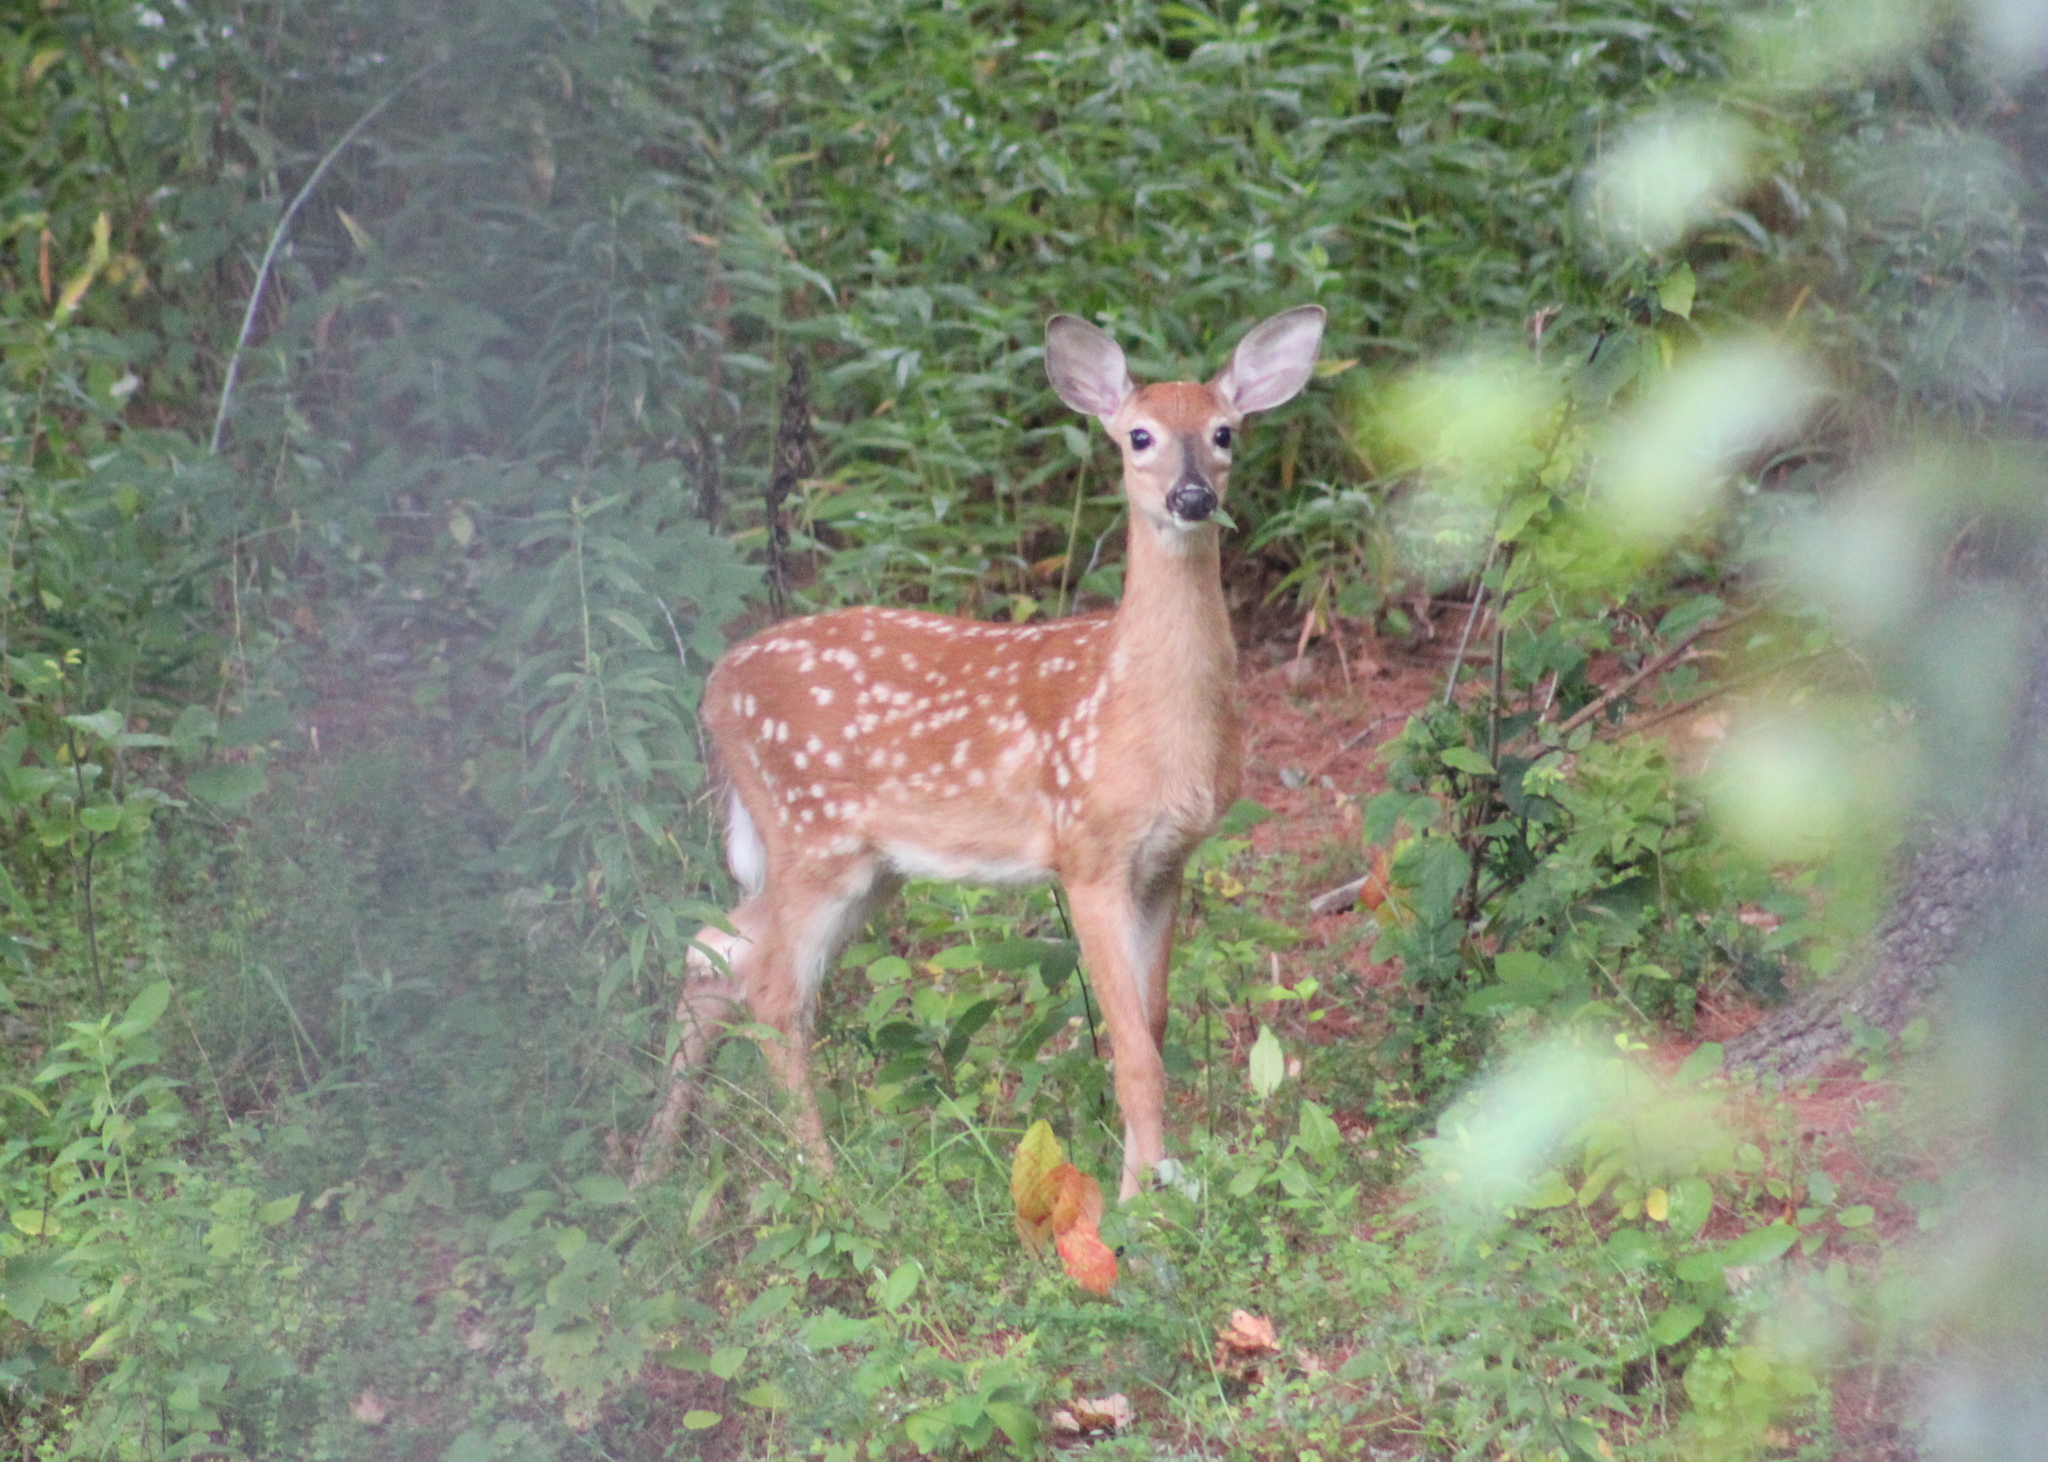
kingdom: Animalia
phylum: Chordata
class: Mammalia
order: Artiodactyla
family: Cervidae
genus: Odocoileus
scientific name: Odocoileus virginianus
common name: White-tailed deer
